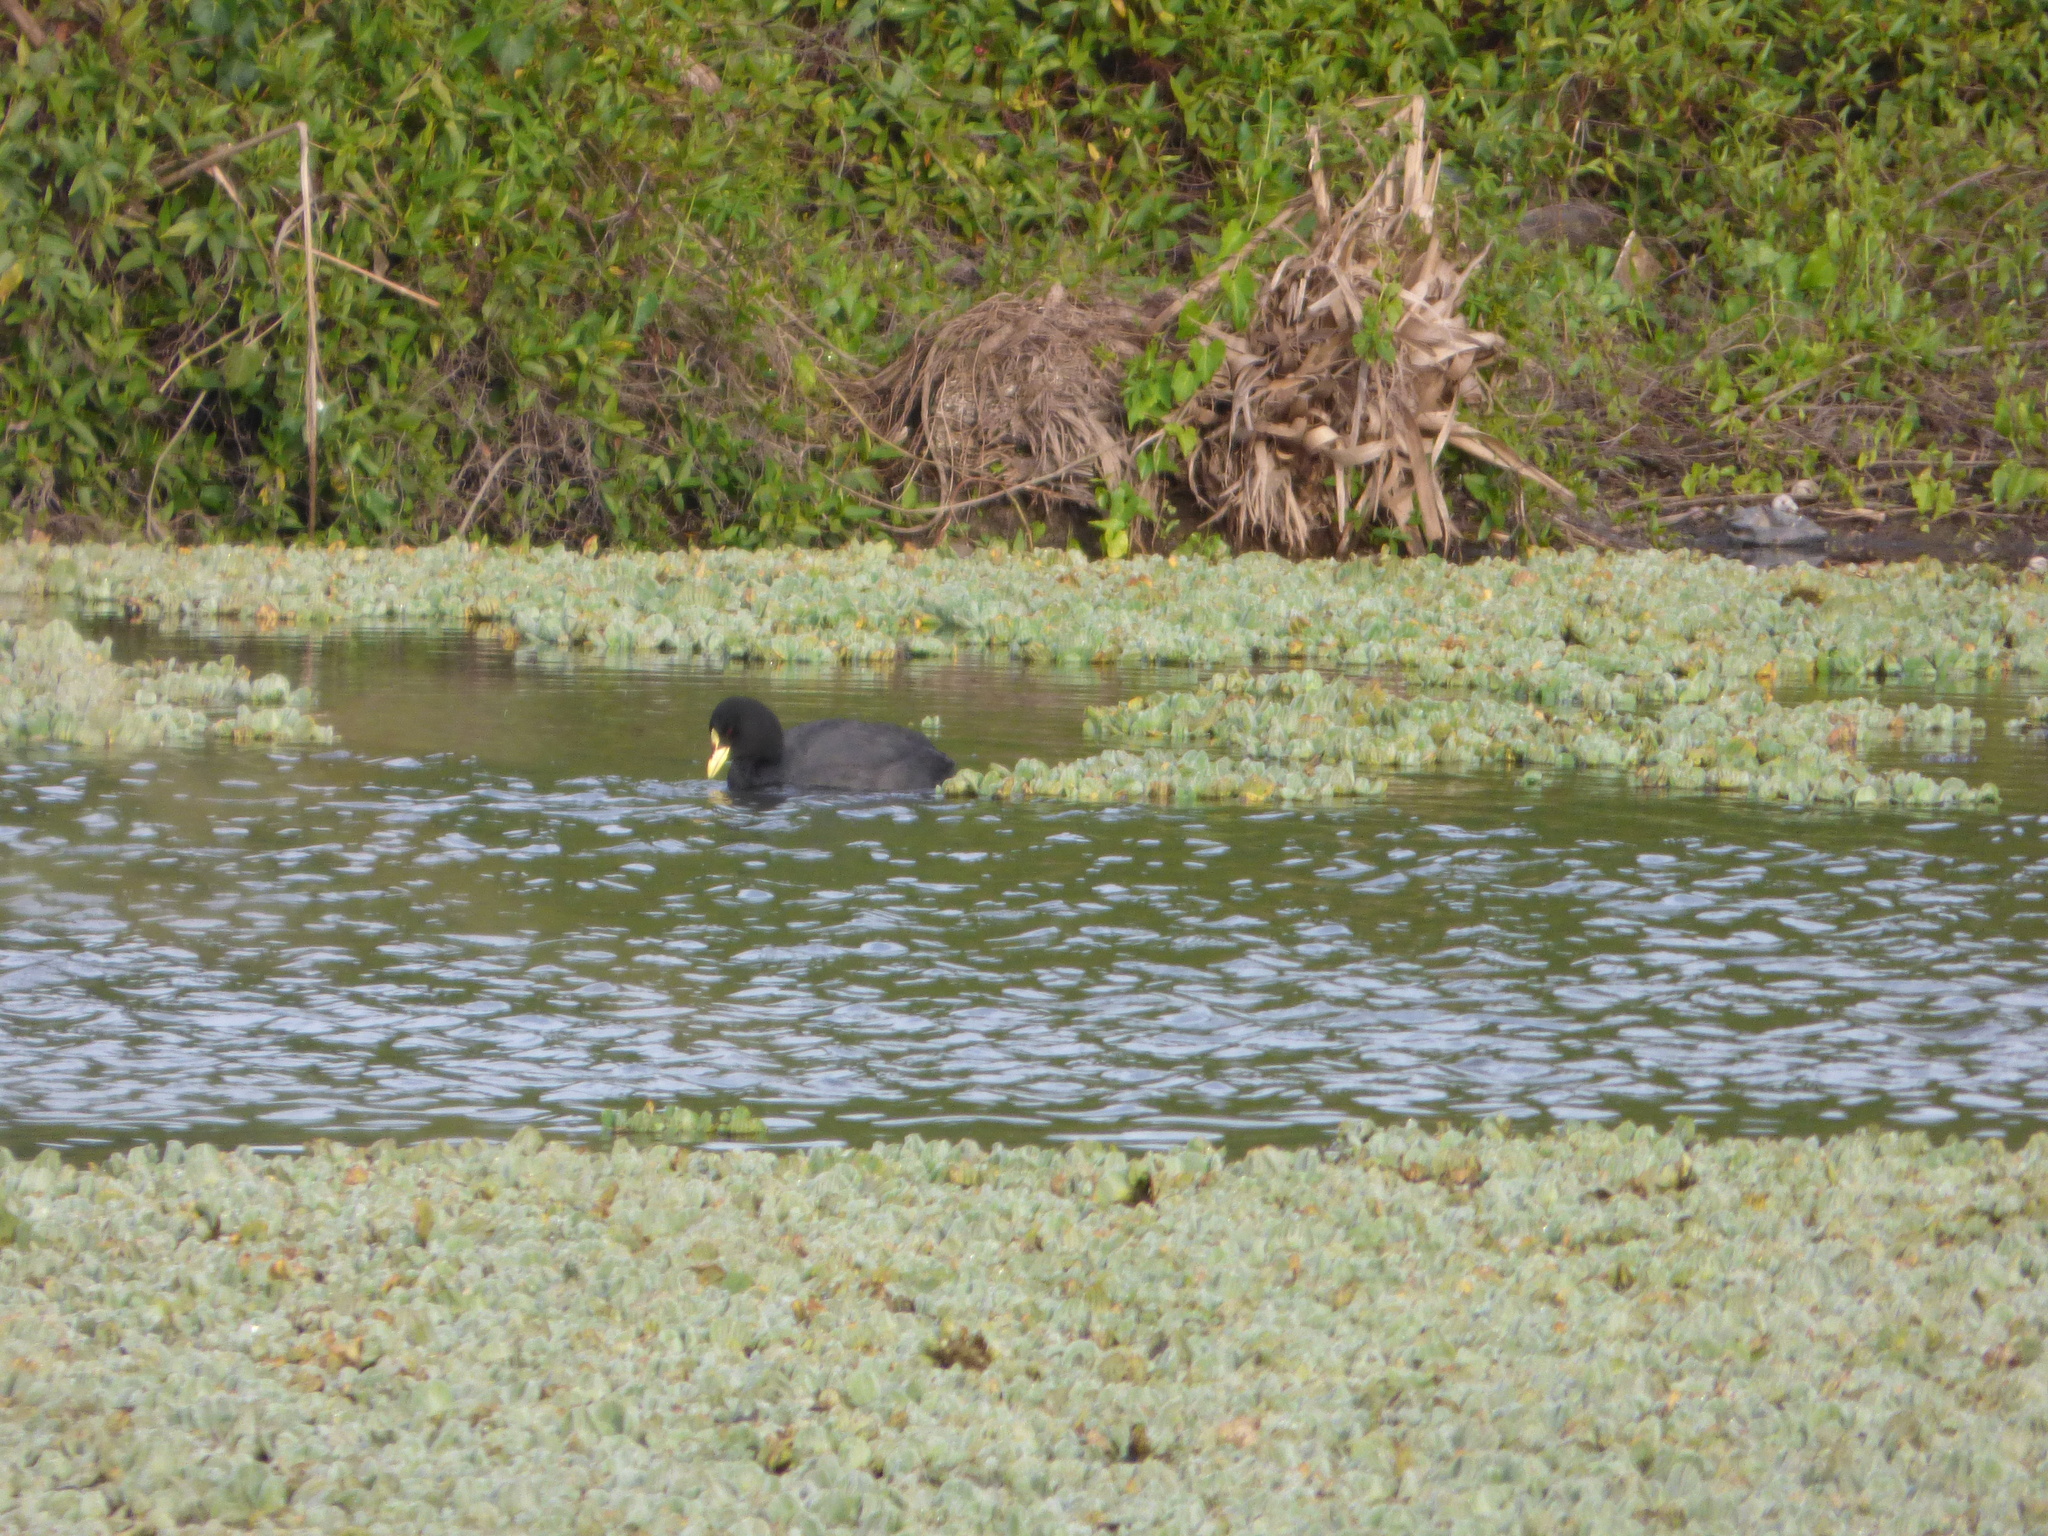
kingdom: Animalia
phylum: Chordata
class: Aves
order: Gruiformes
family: Rallidae
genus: Fulica
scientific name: Fulica armillata
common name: Red-gartered coot
